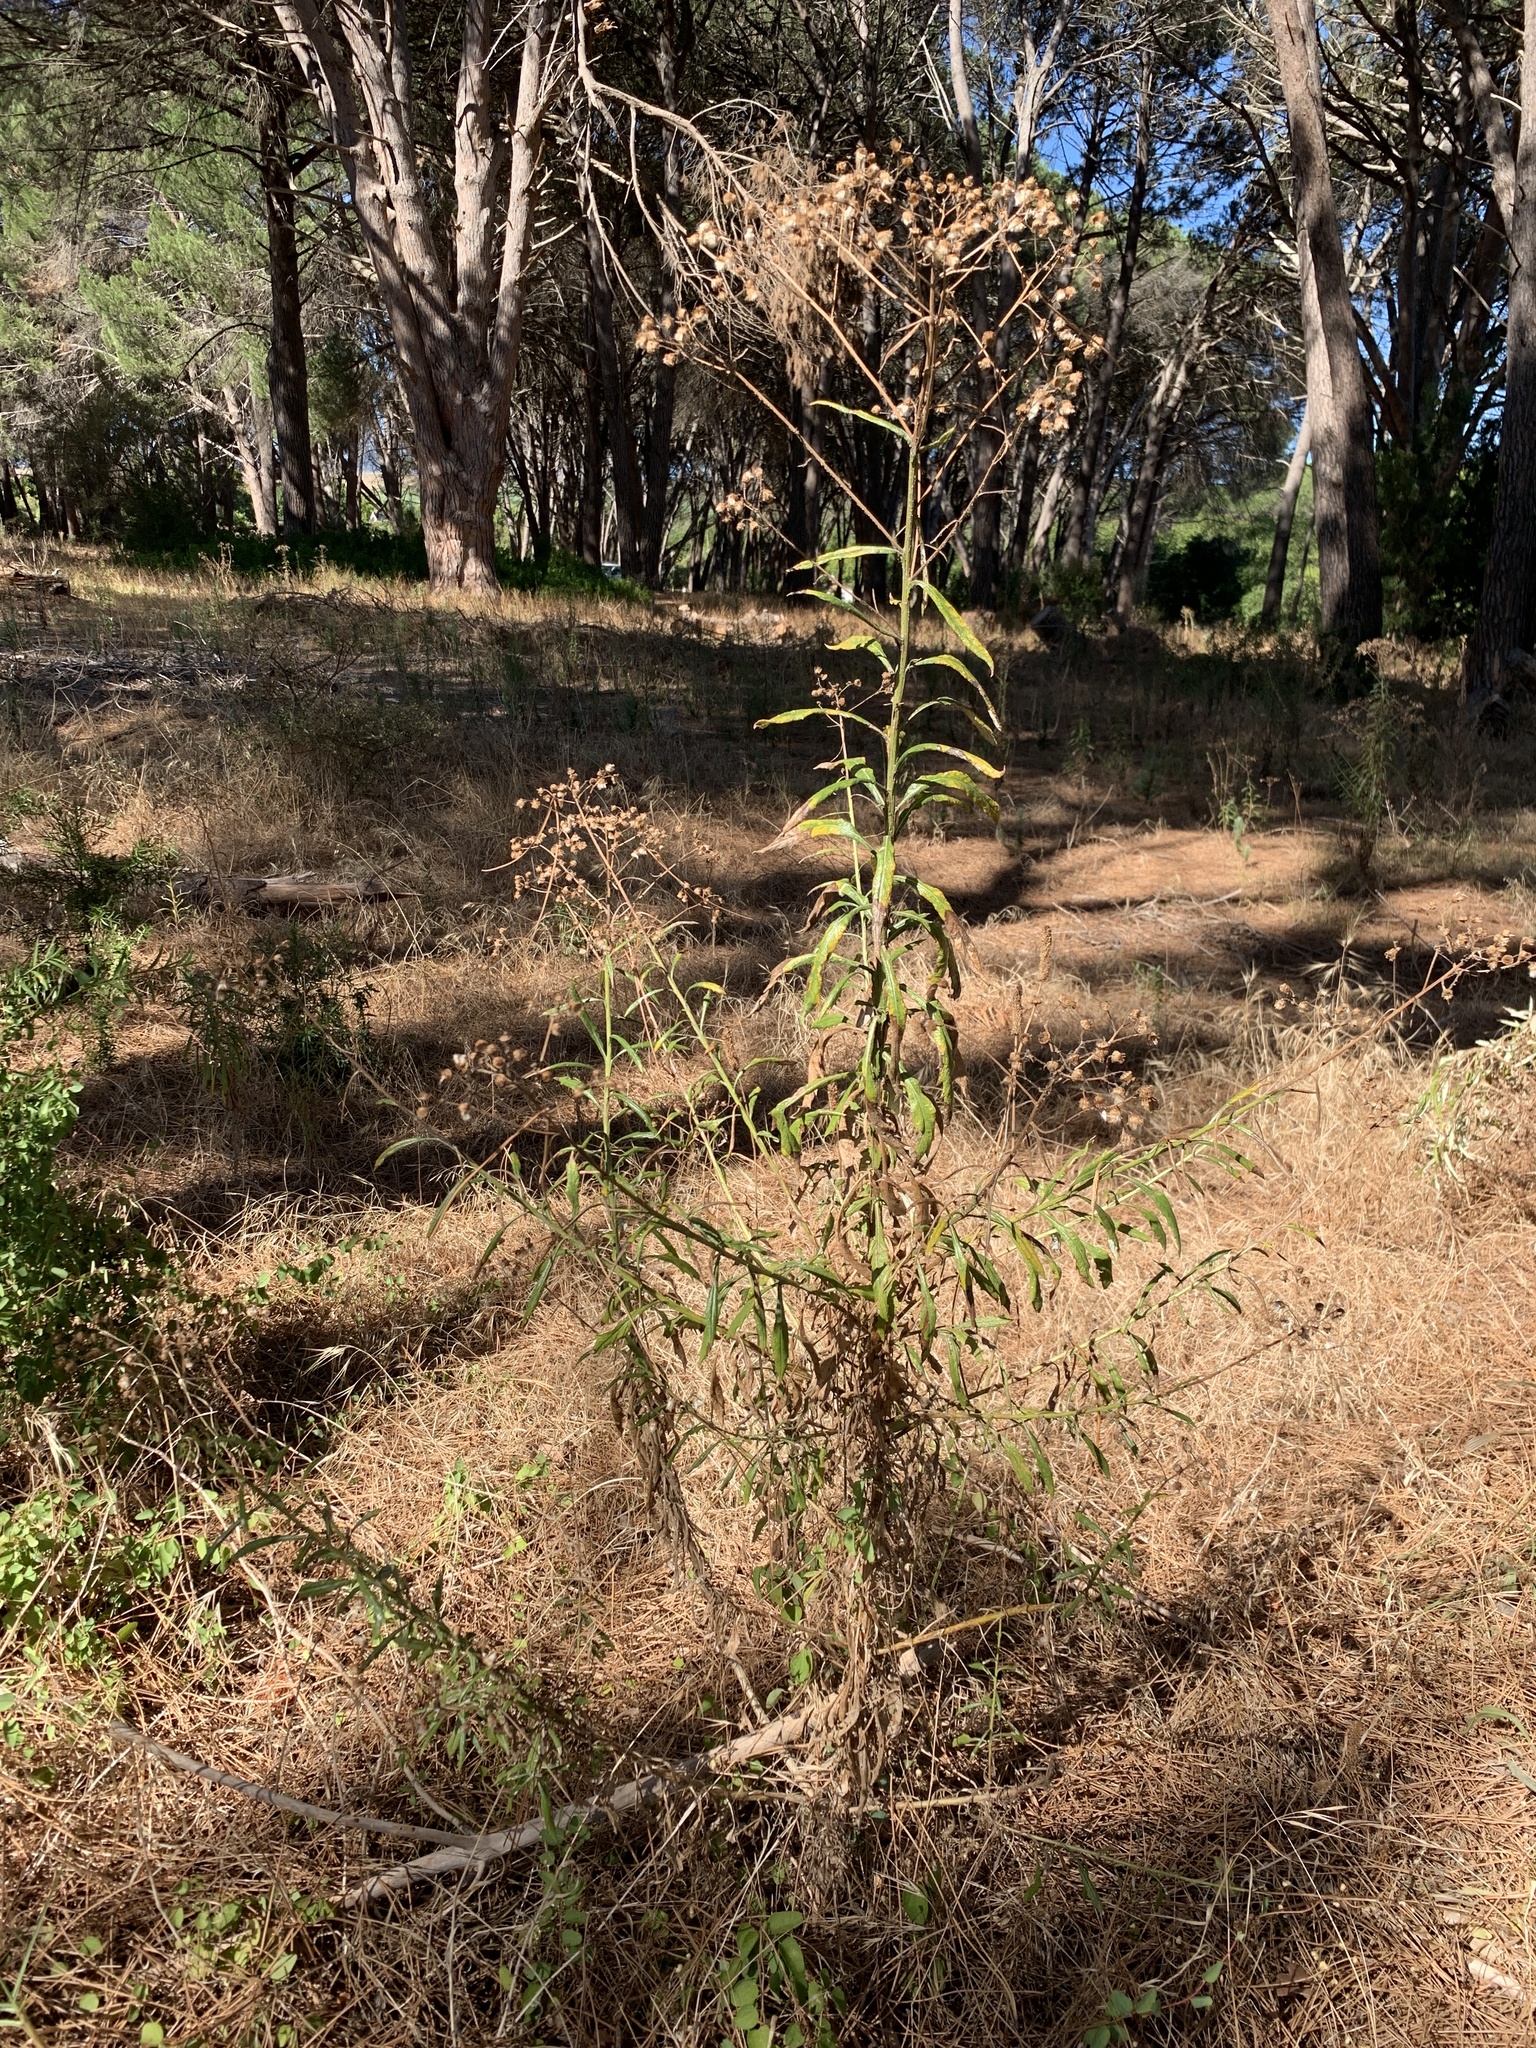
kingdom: Plantae
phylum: Tracheophyta
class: Magnoliopsida
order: Asterales
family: Asteraceae
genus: Senecio
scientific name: Senecio pterophorus
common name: Shoddy ragwort
